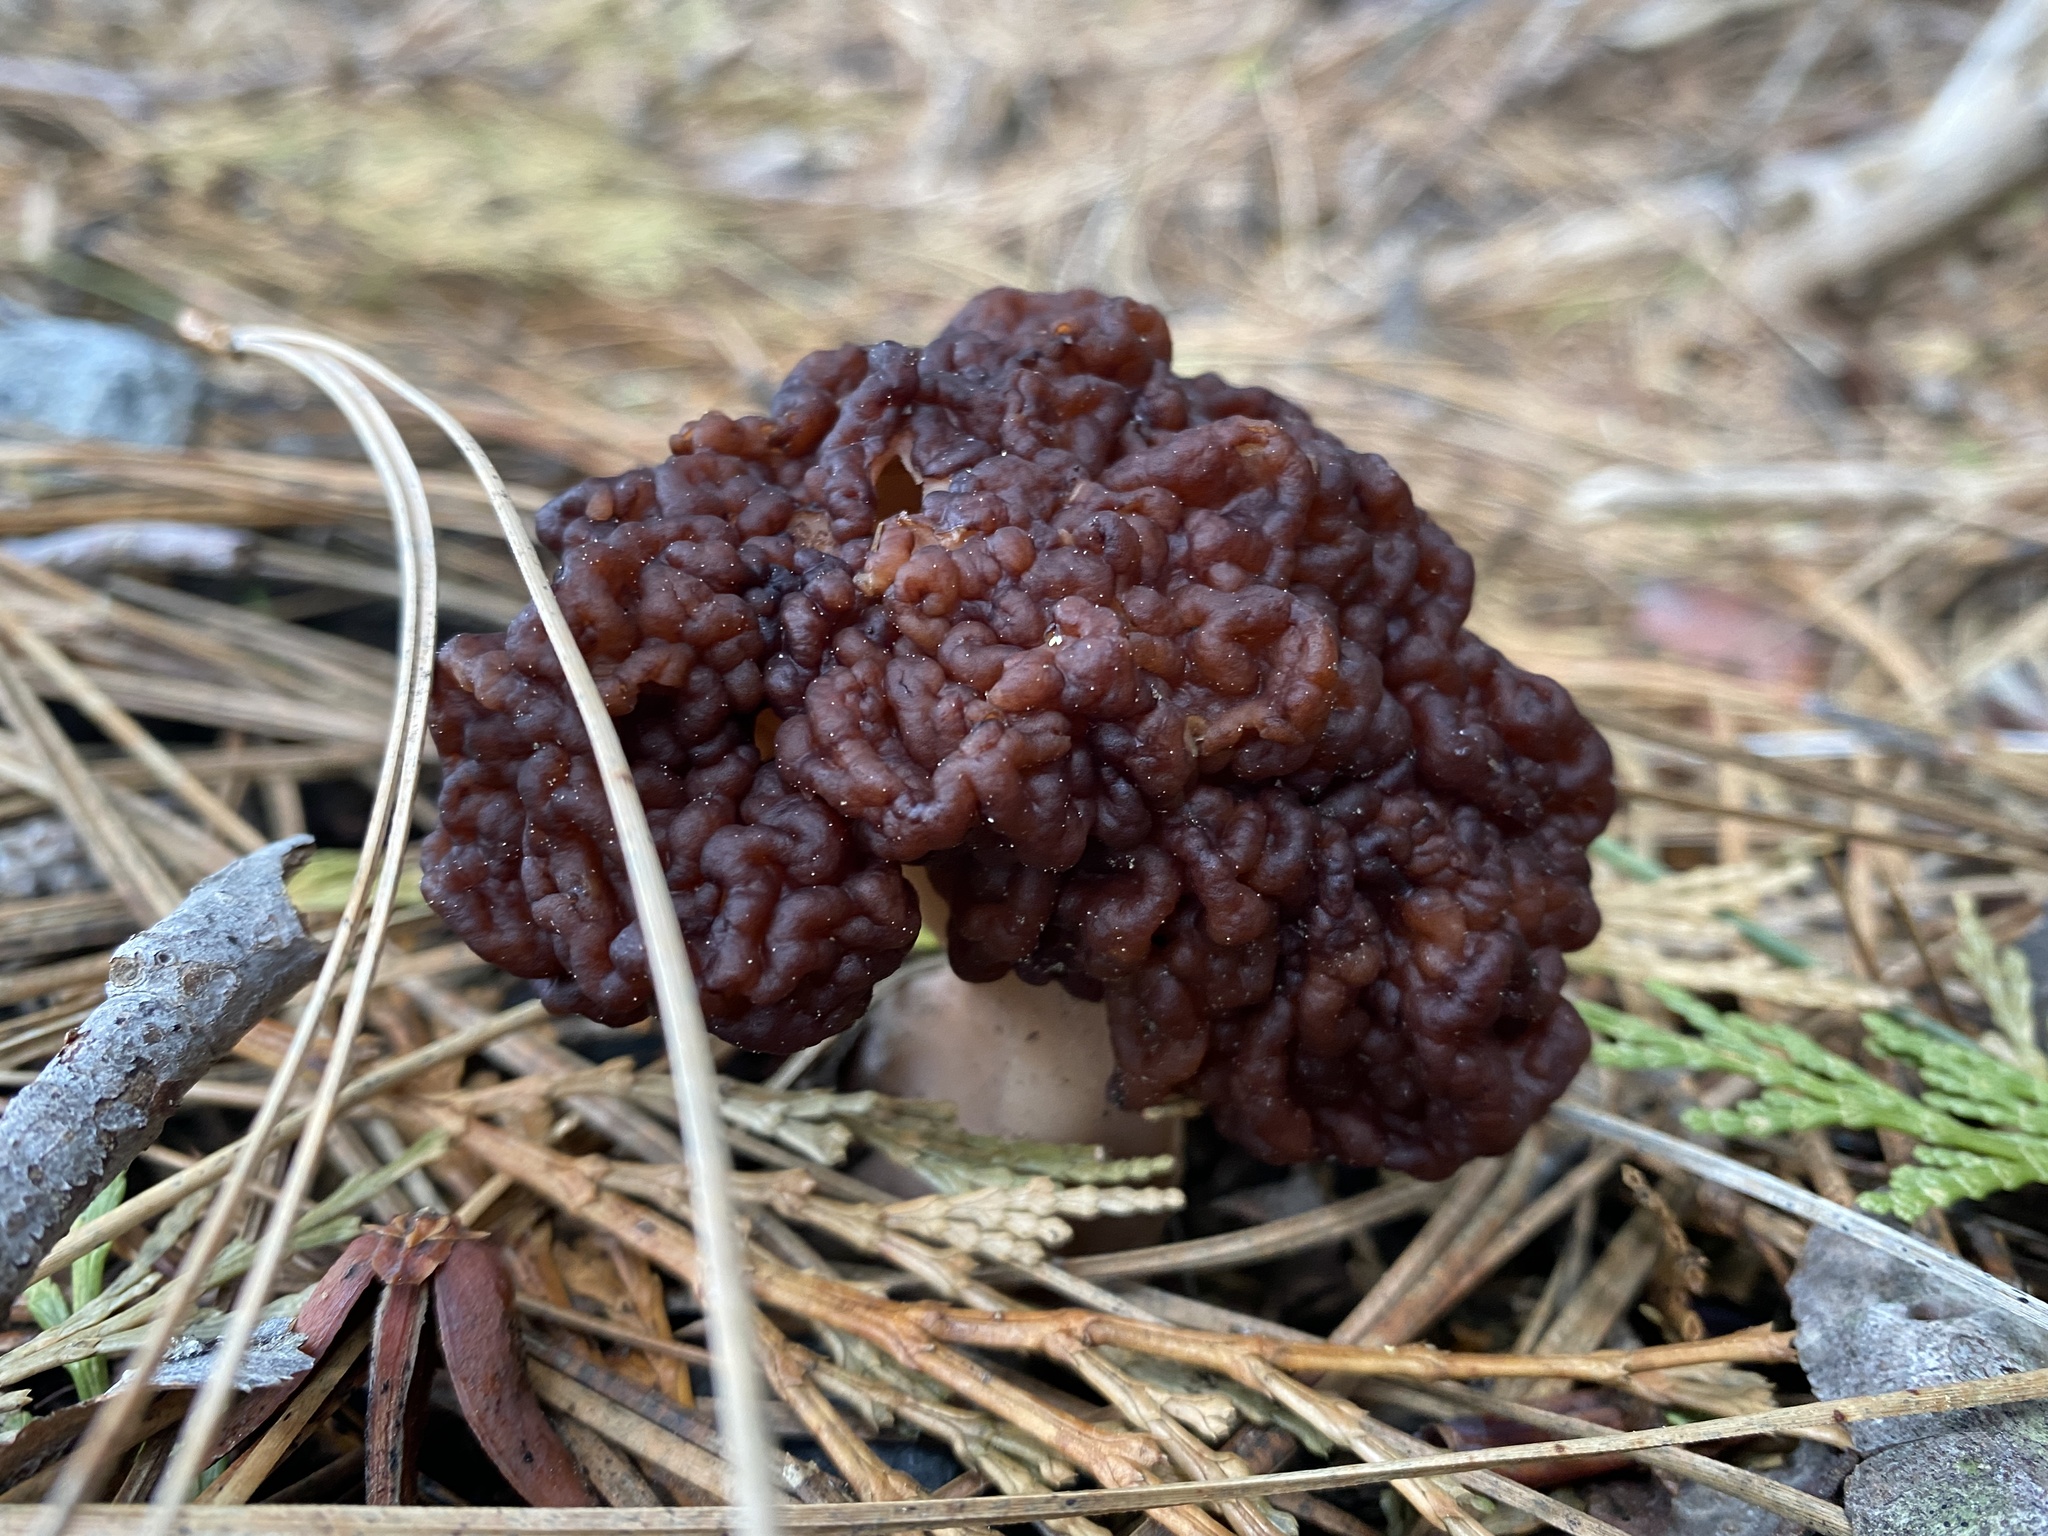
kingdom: Fungi
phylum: Ascomycota
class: Pezizomycetes
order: Pezizales
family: Discinaceae
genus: Gyromitra
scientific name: Gyromitra esculenta
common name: False morel
